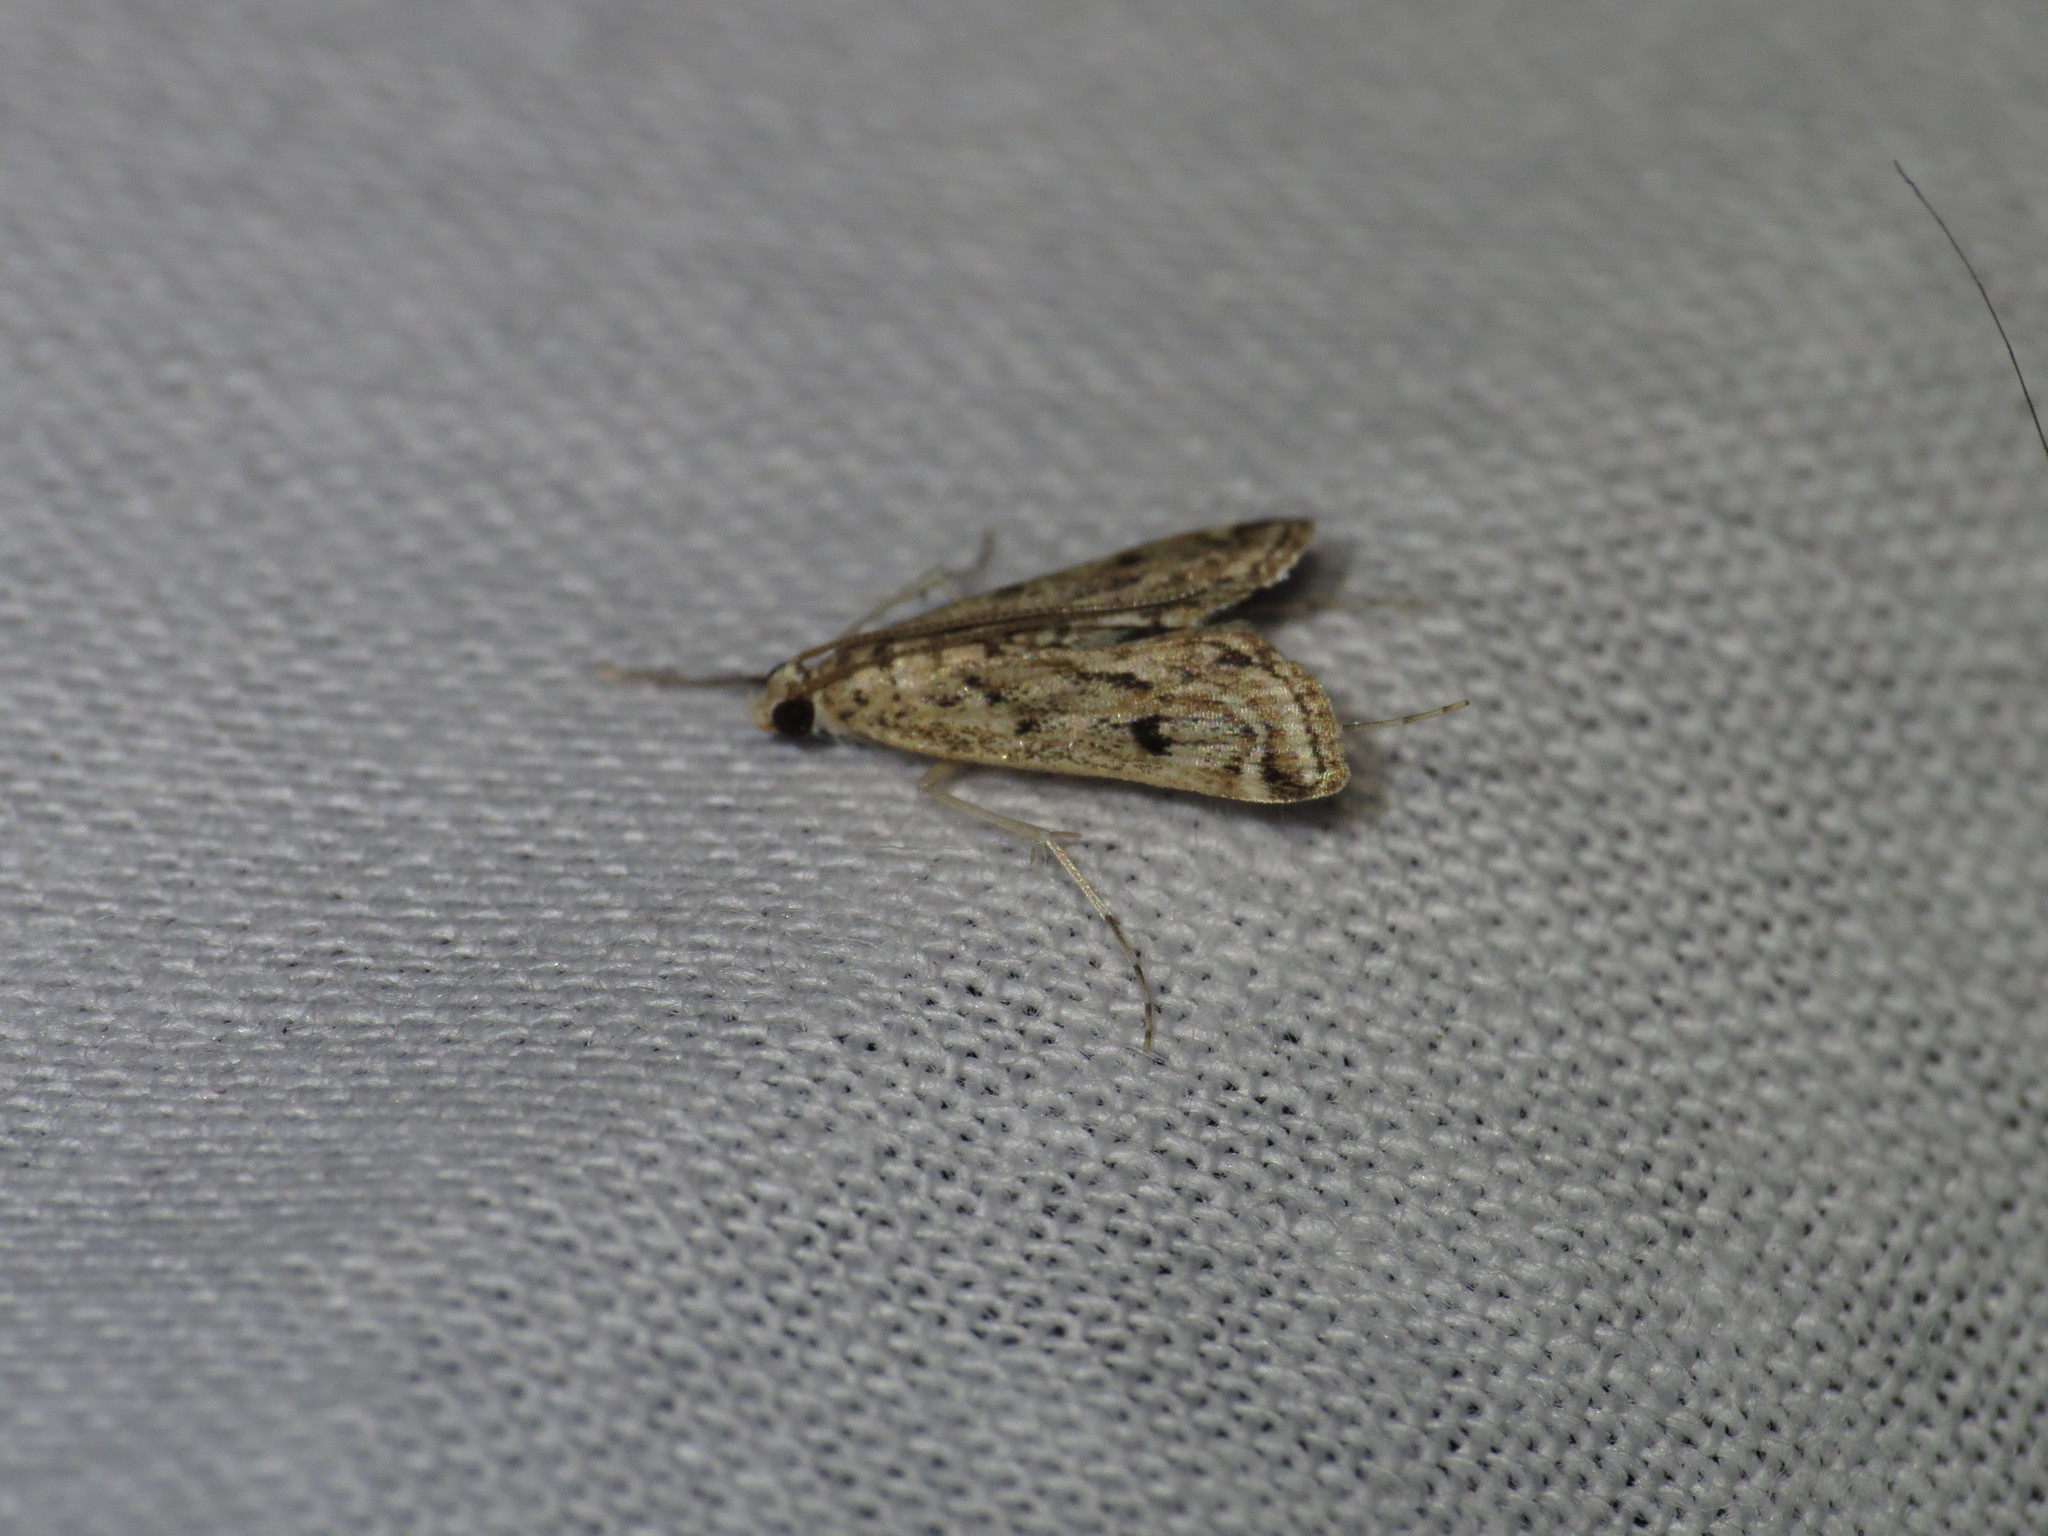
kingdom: Animalia
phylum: Arthropoda
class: Insecta
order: Lepidoptera
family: Crambidae
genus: Parapoynx
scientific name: Parapoynx allionealis
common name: Bladderwort casemaker
